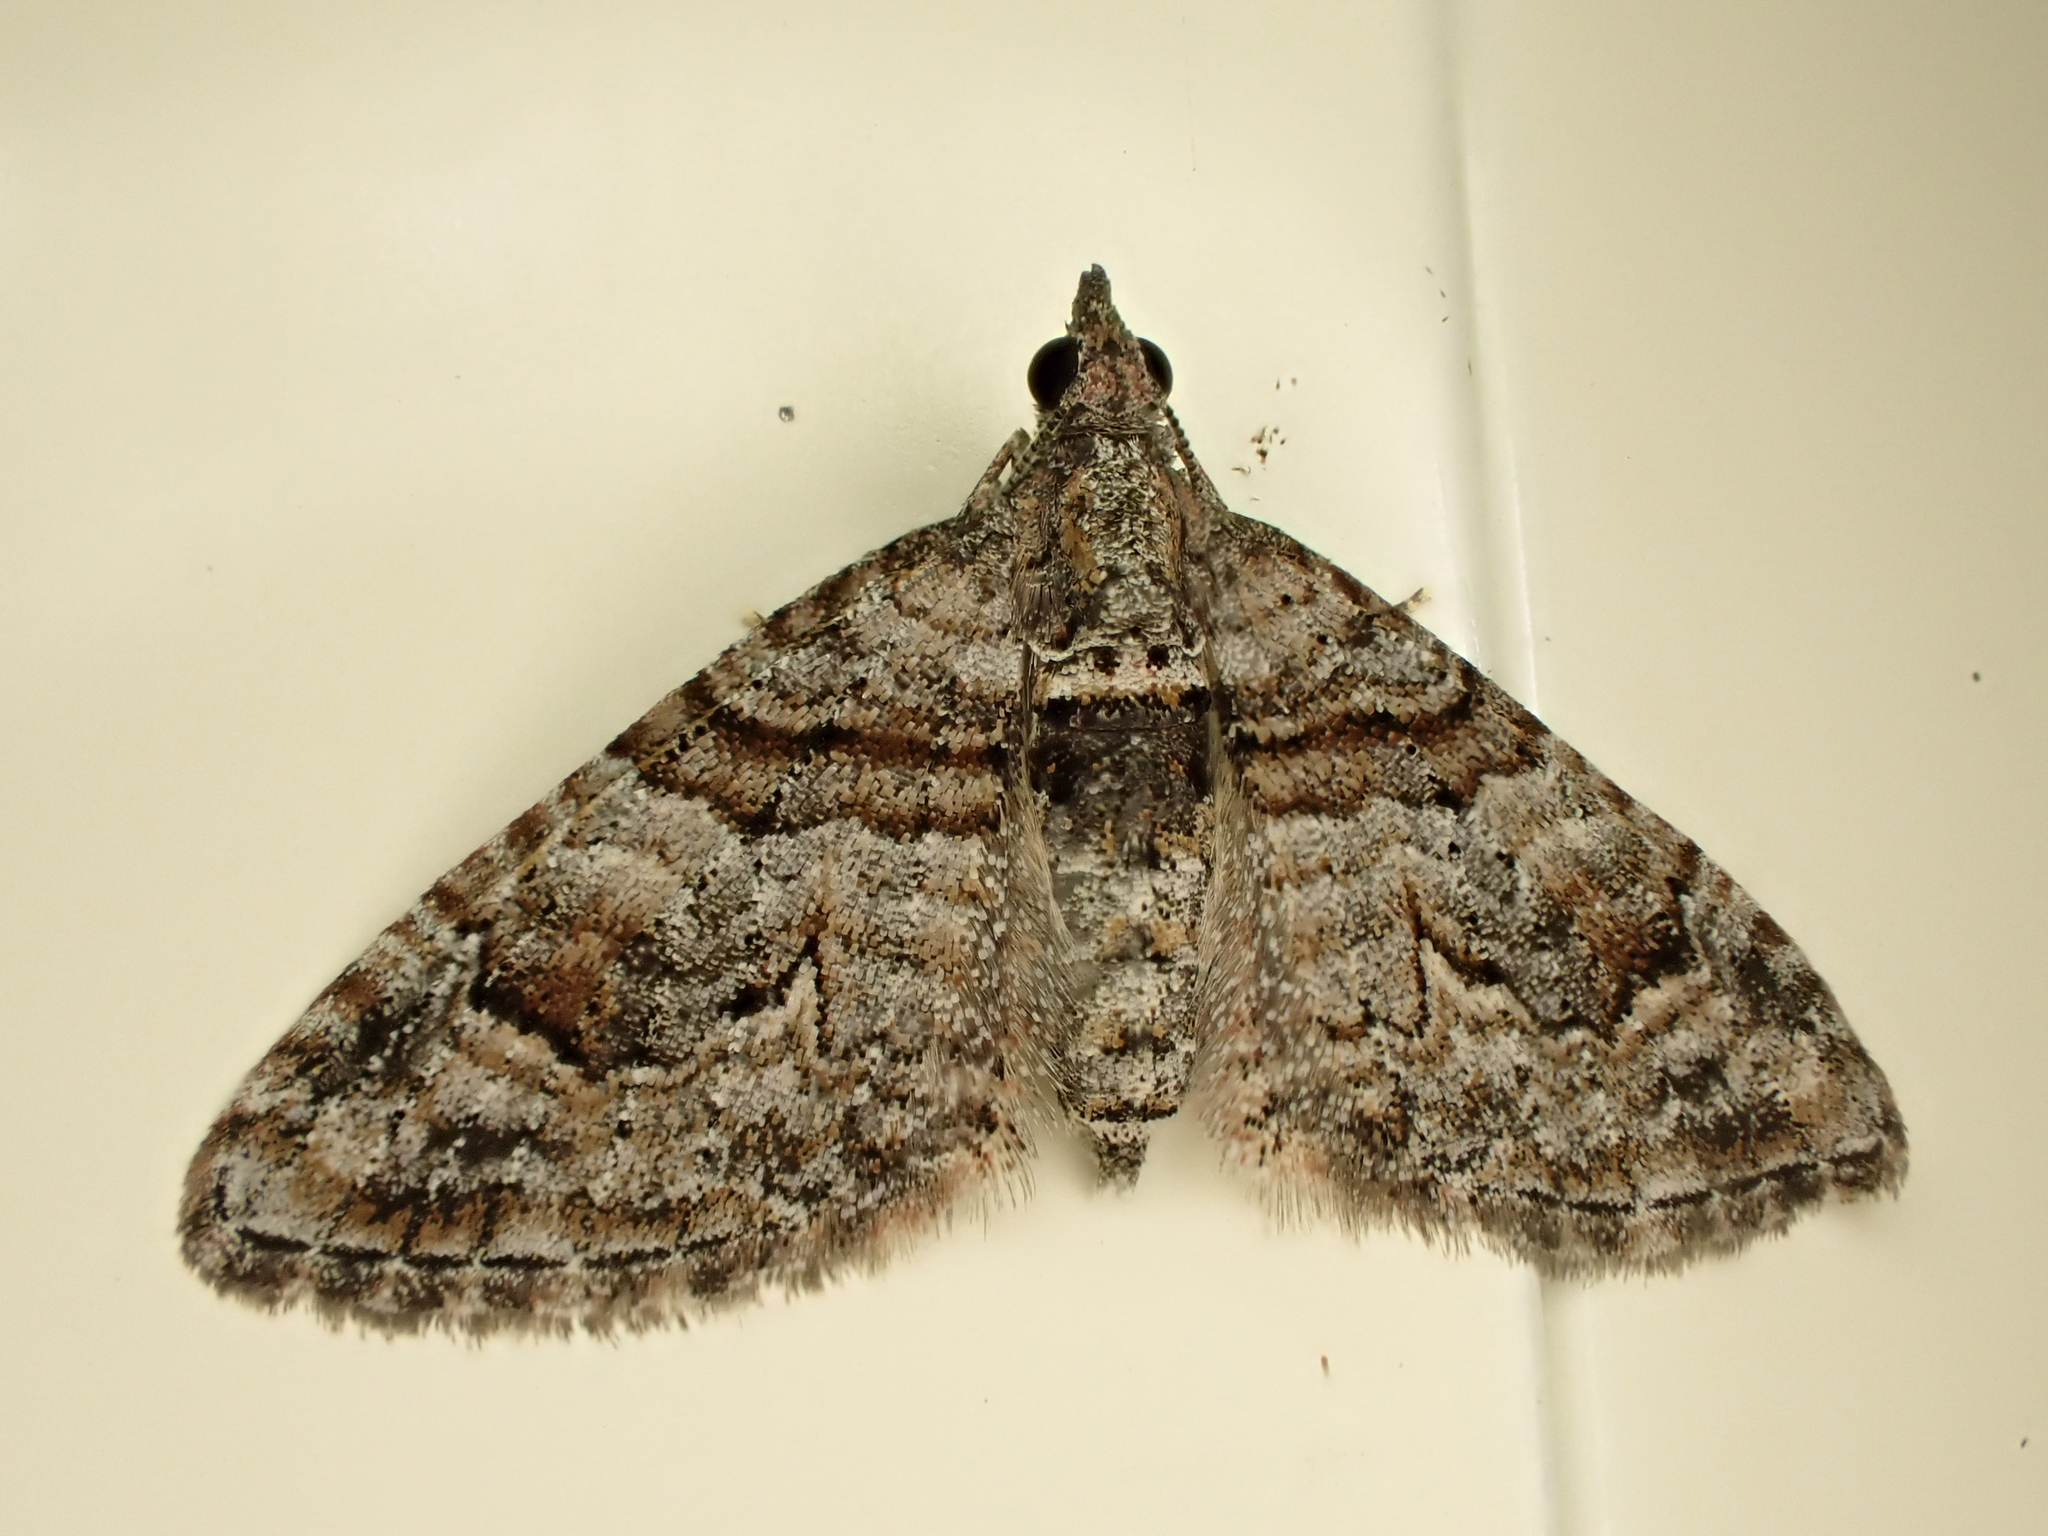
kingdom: Animalia
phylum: Arthropoda
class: Insecta
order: Lepidoptera
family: Geometridae
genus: Phrissogonus
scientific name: Phrissogonus laticostata
